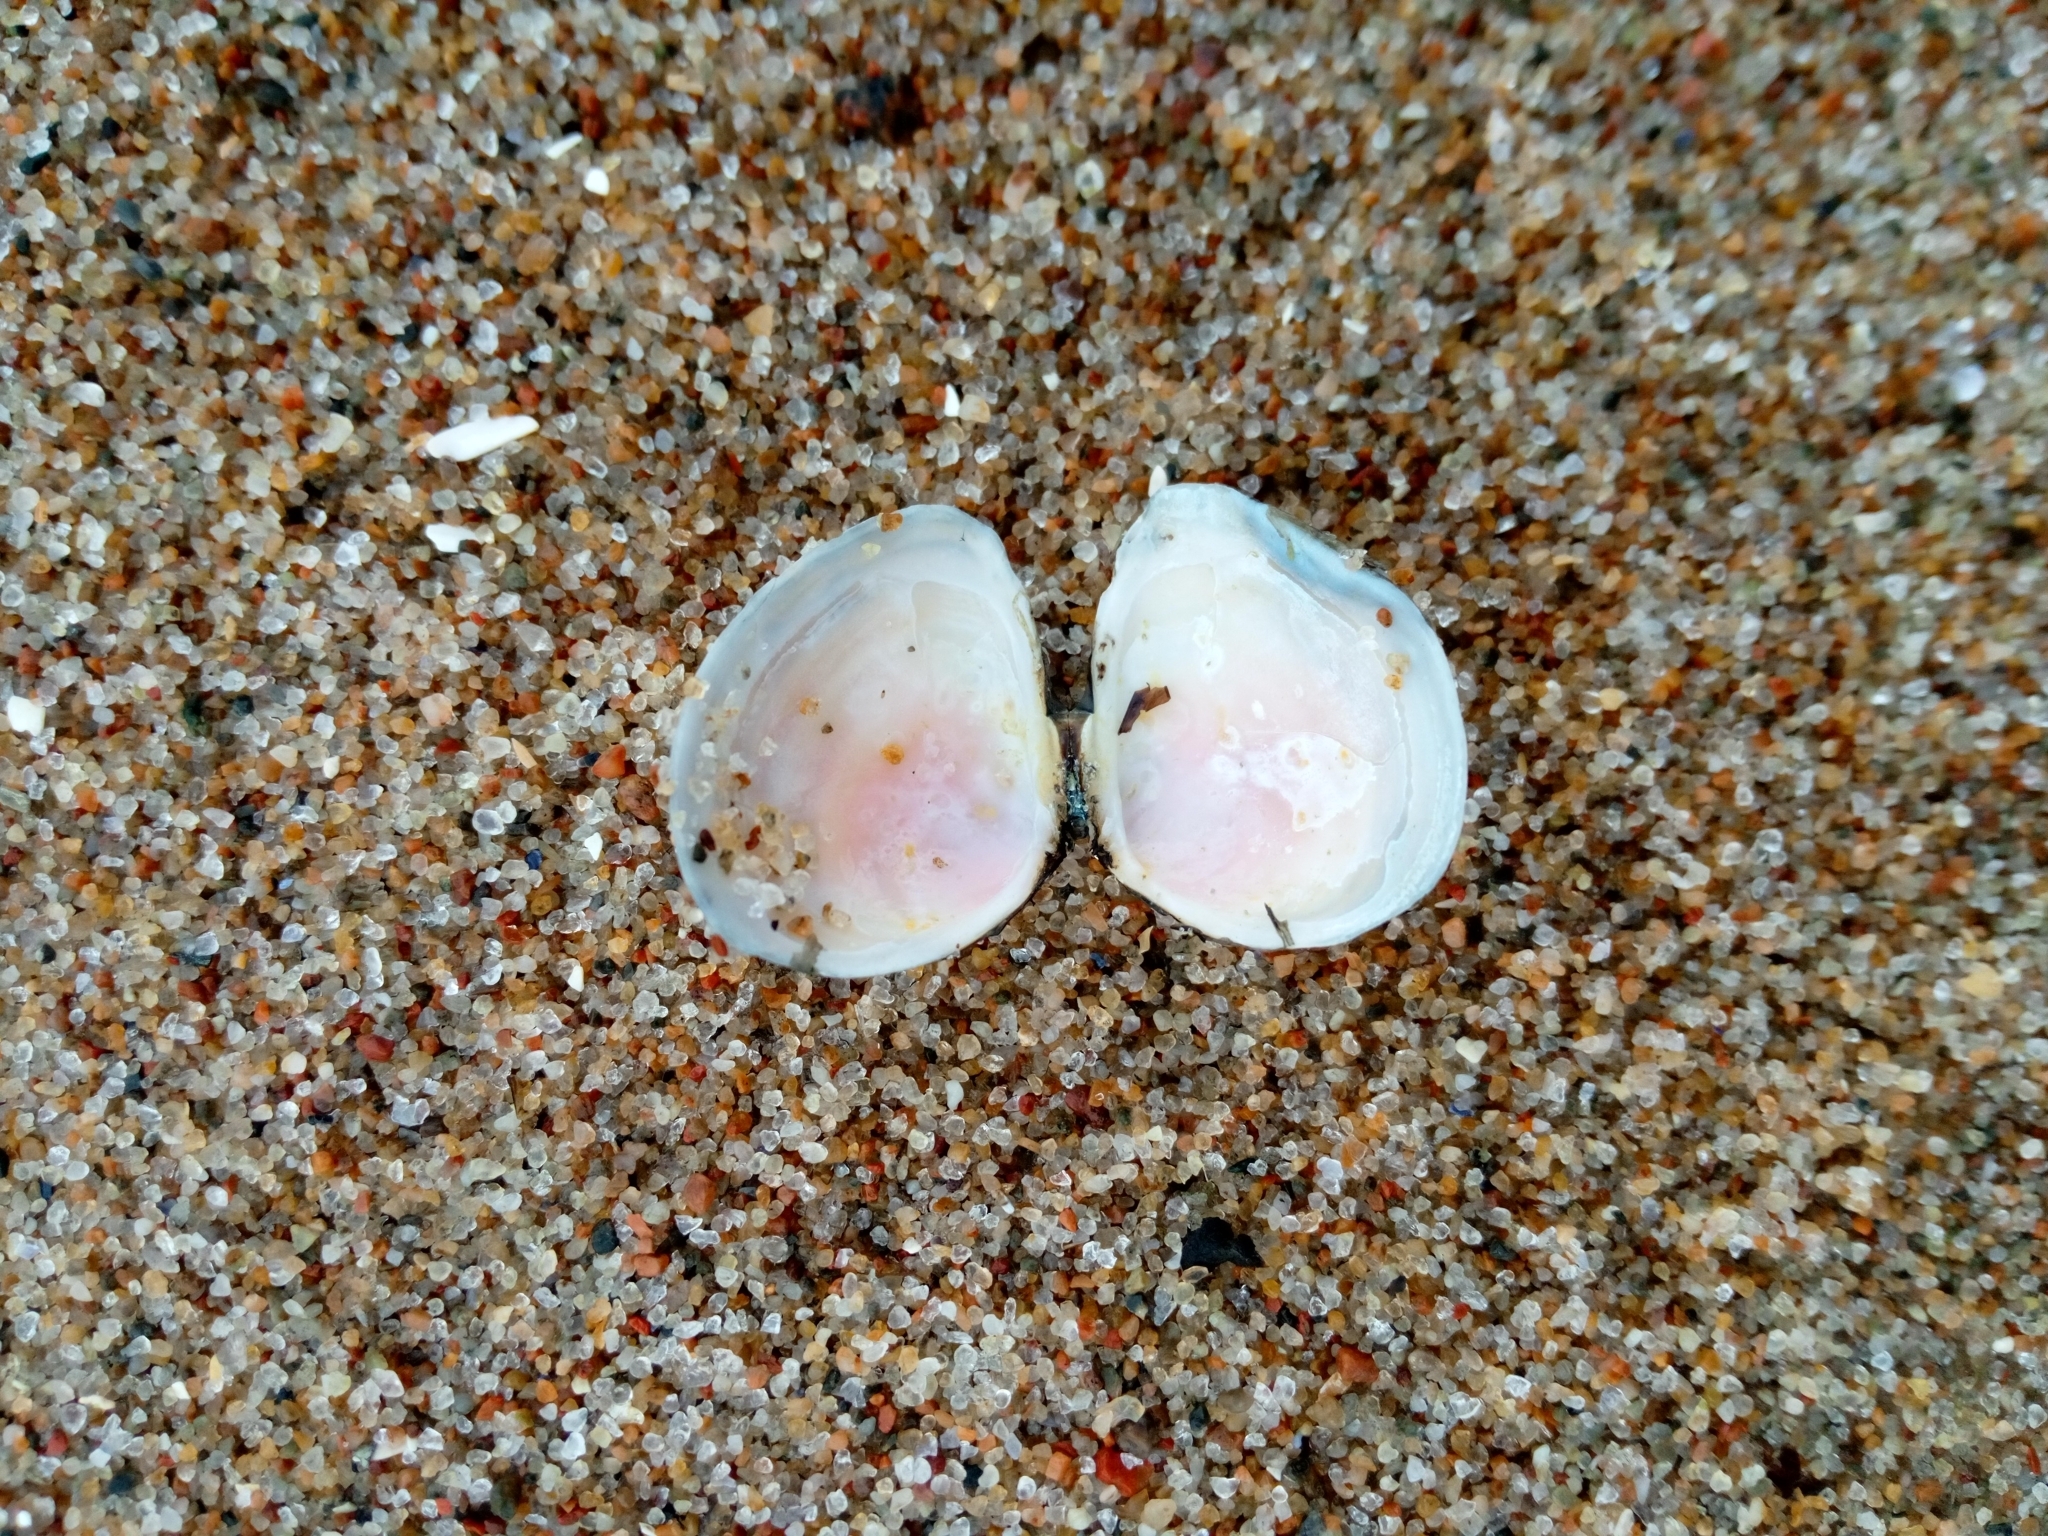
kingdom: Animalia
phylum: Mollusca
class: Bivalvia
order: Cardiida
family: Tellinidae
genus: Macoma
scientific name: Macoma balthica
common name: Baltic tellin
